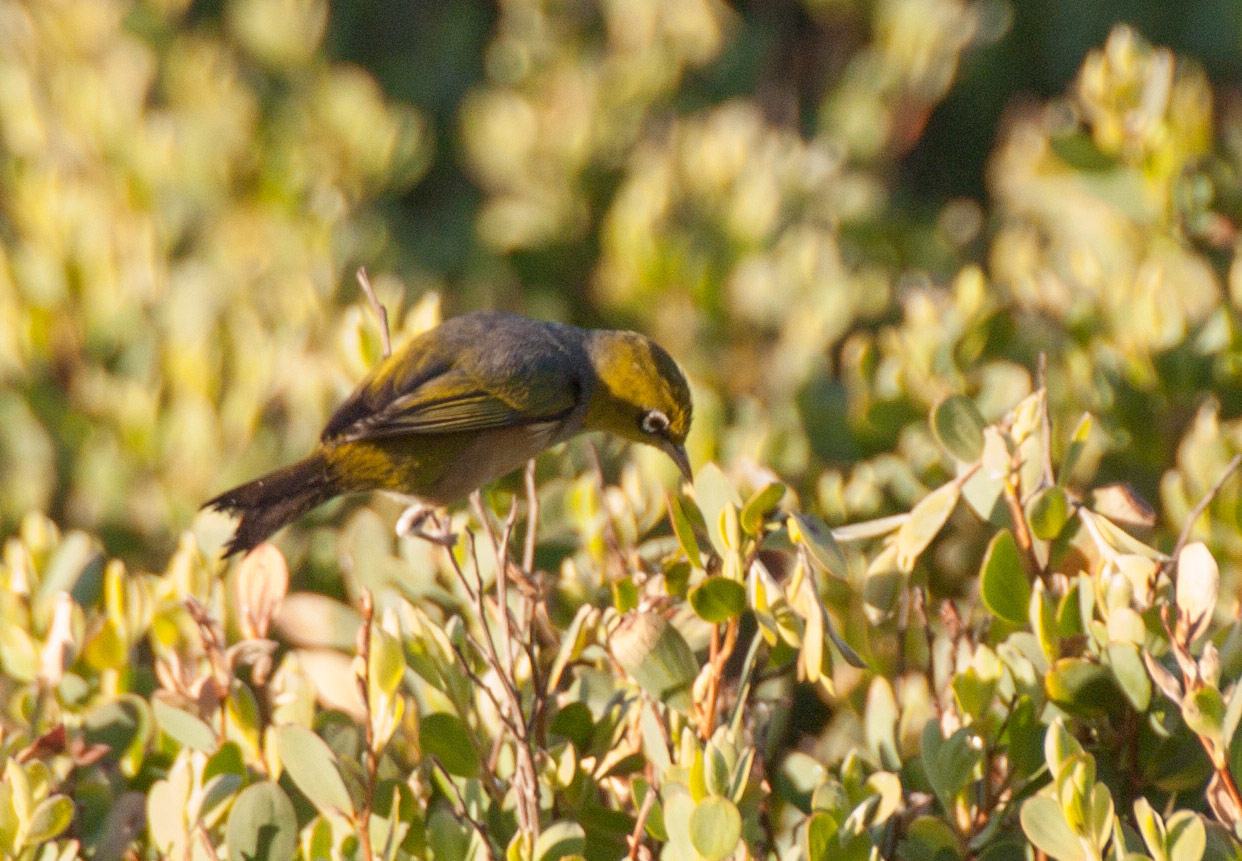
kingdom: Animalia
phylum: Chordata
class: Aves
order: Passeriformes
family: Zosteropidae
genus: Zosterops
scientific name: Zosterops lateralis
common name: Silvereye
